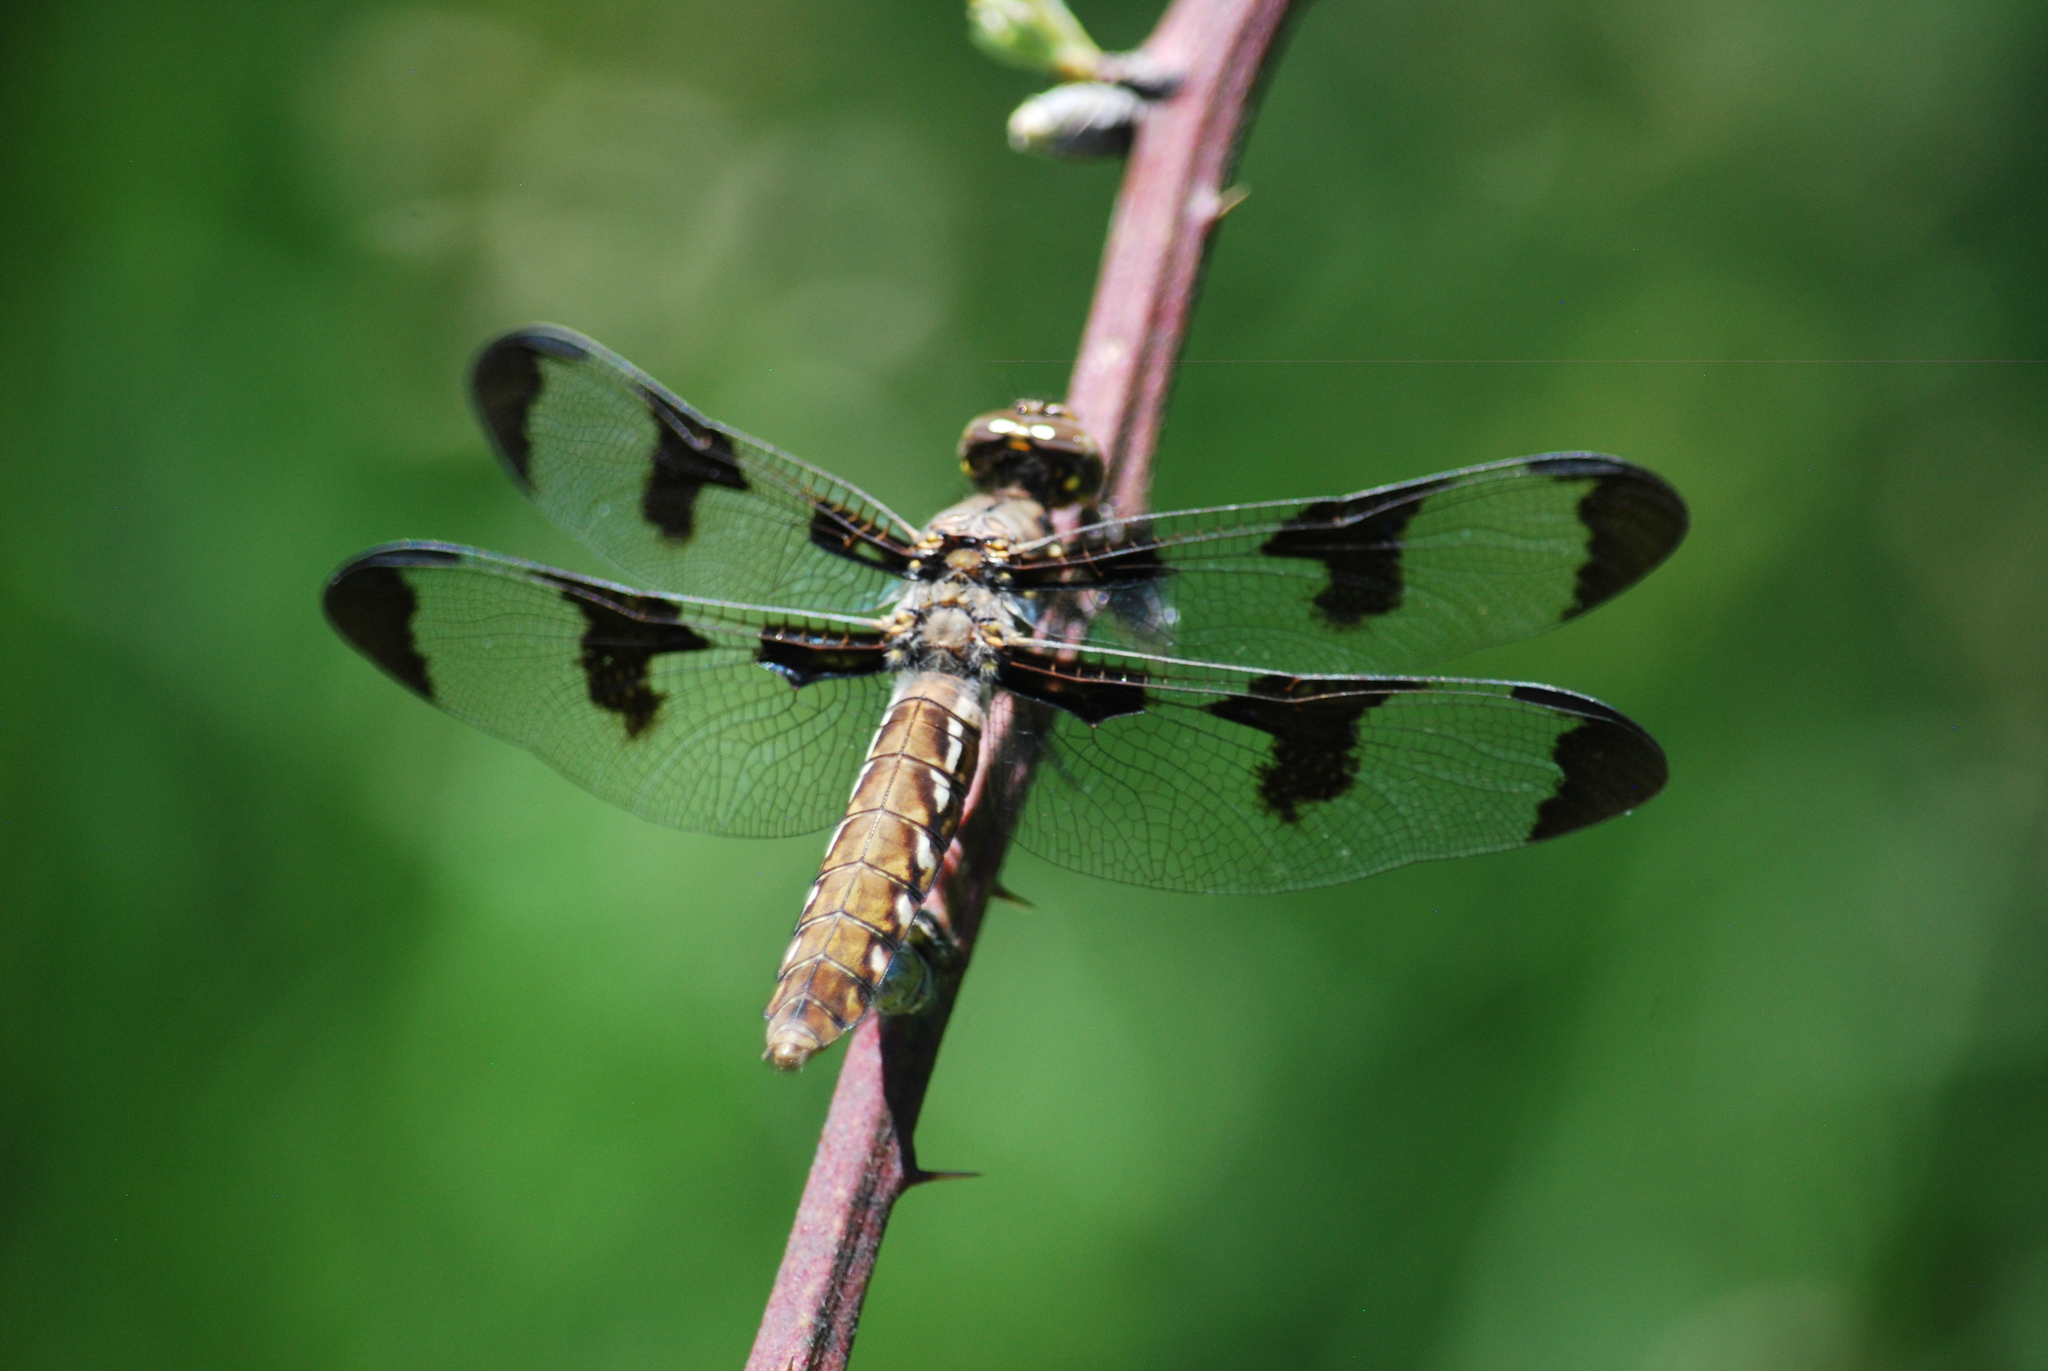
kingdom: Animalia
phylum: Arthropoda
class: Insecta
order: Odonata
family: Libellulidae
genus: Plathemis
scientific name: Plathemis lydia
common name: Common whitetail
